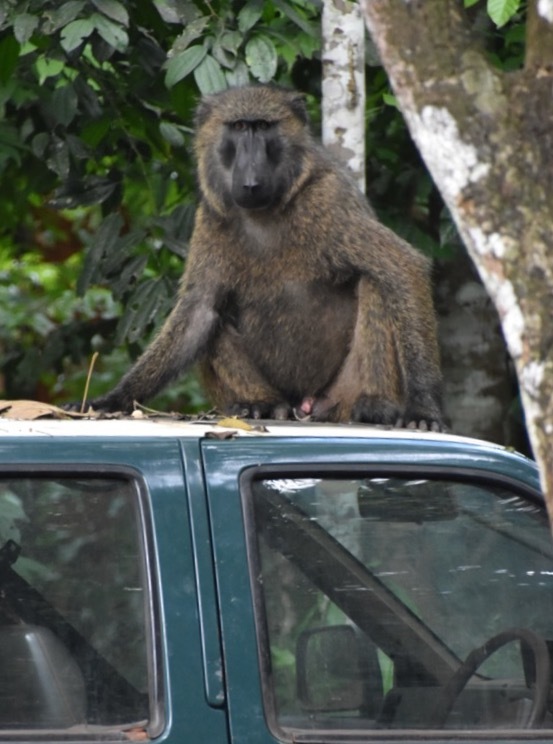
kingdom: Animalia
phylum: Chordata
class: Mammalia
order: Primates
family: Cercopithecidae
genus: Papio
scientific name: Papio anubis
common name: Olive baboon
